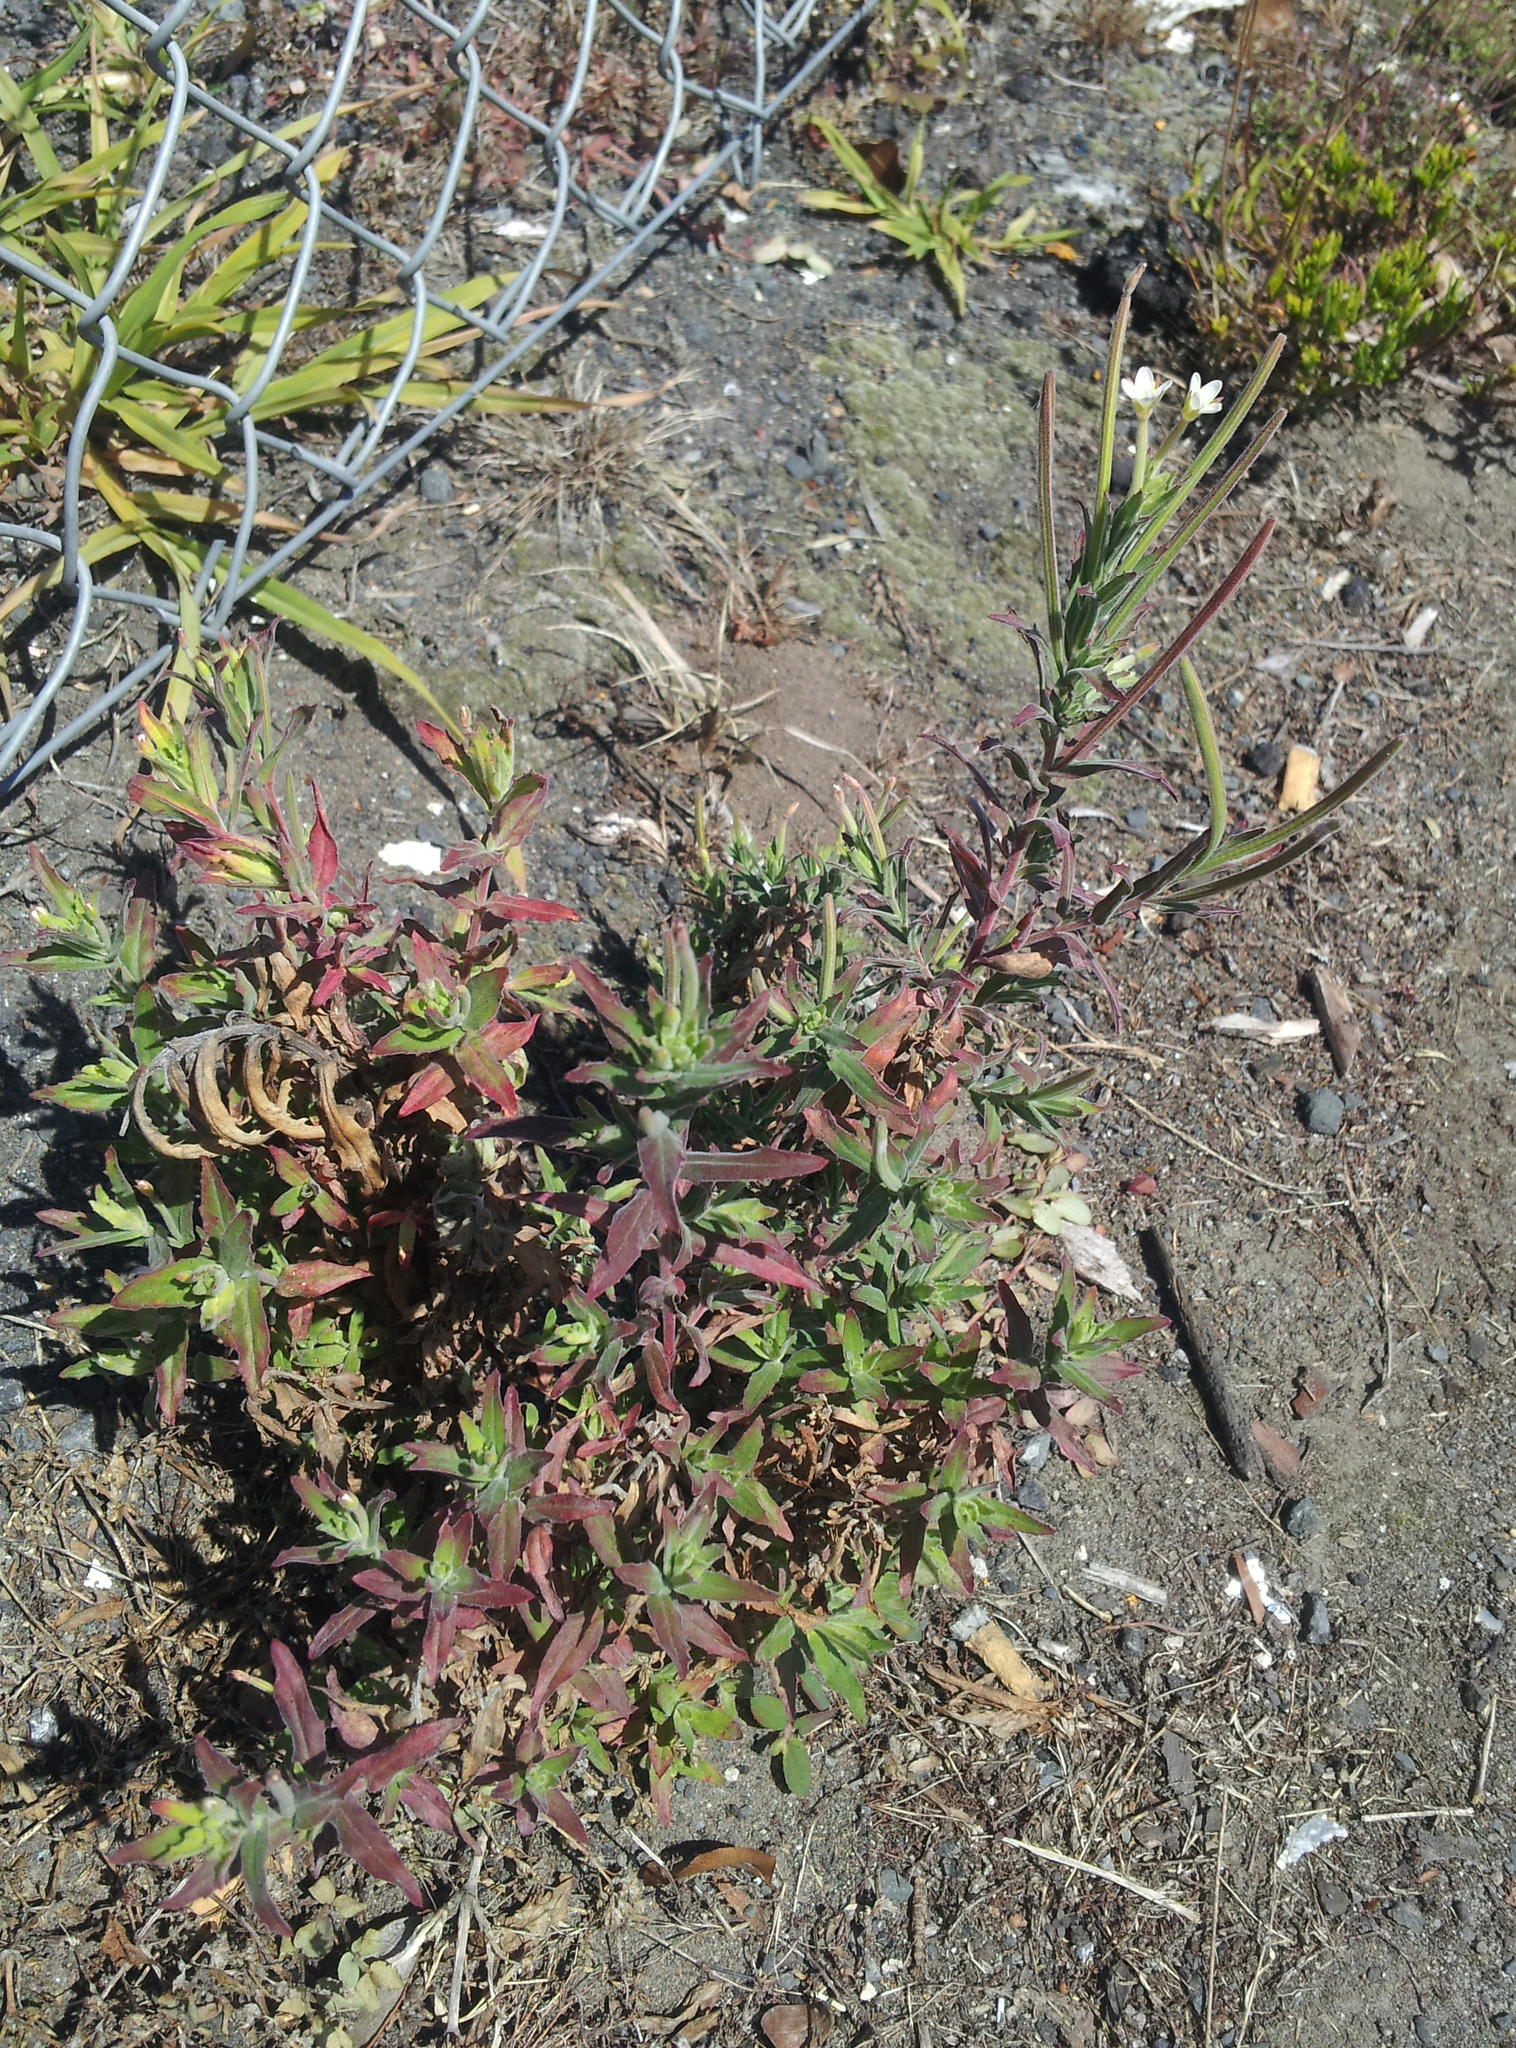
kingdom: Plantae
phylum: Tracheophyta
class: Magnoliopsida
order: Myrtales
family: Onagraceae
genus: Epilobium
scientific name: Epilobium hirtigerum
